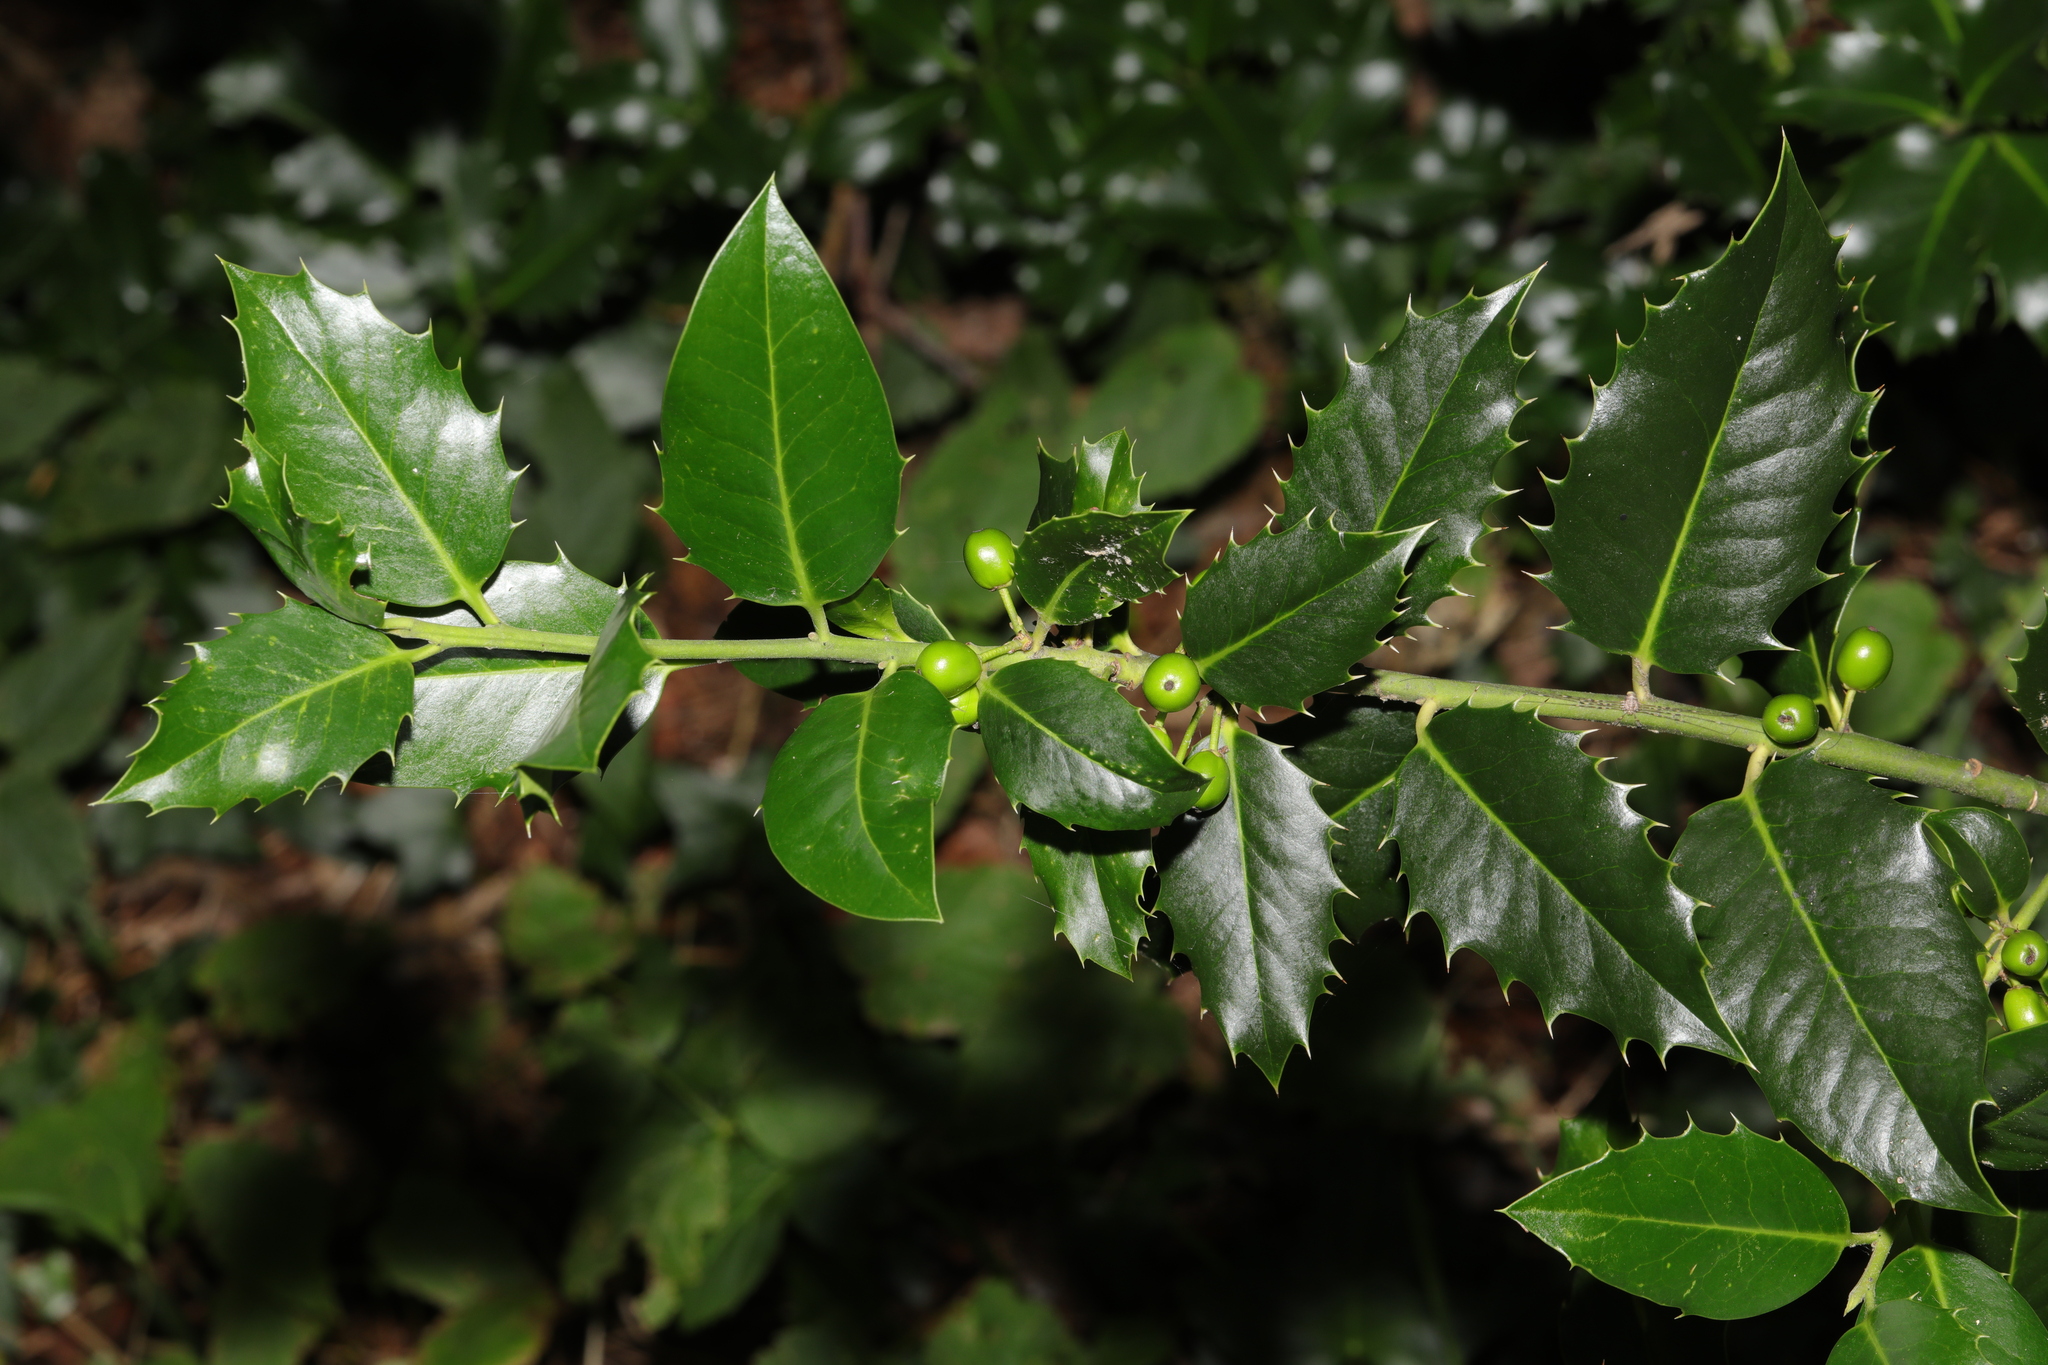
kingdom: Plantae
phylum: Tracheophyta
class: Magnoliopsida
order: Aquifoliales
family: Aquifoliaceae
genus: Ilex
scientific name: Ilex altaclerensis
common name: Highclere holly
